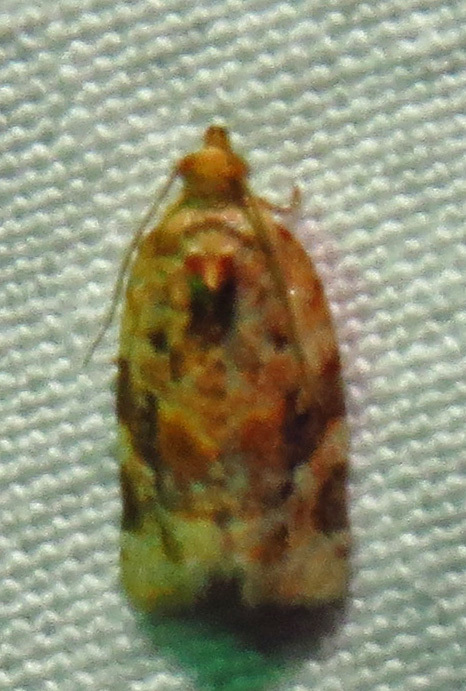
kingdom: Animalia
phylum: Arthropoda
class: Insecta
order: Lepidoptera
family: Tortricidae
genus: Argyrotaenia
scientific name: Argyrotaenia velutinana
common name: Red-banded leafroller moth
